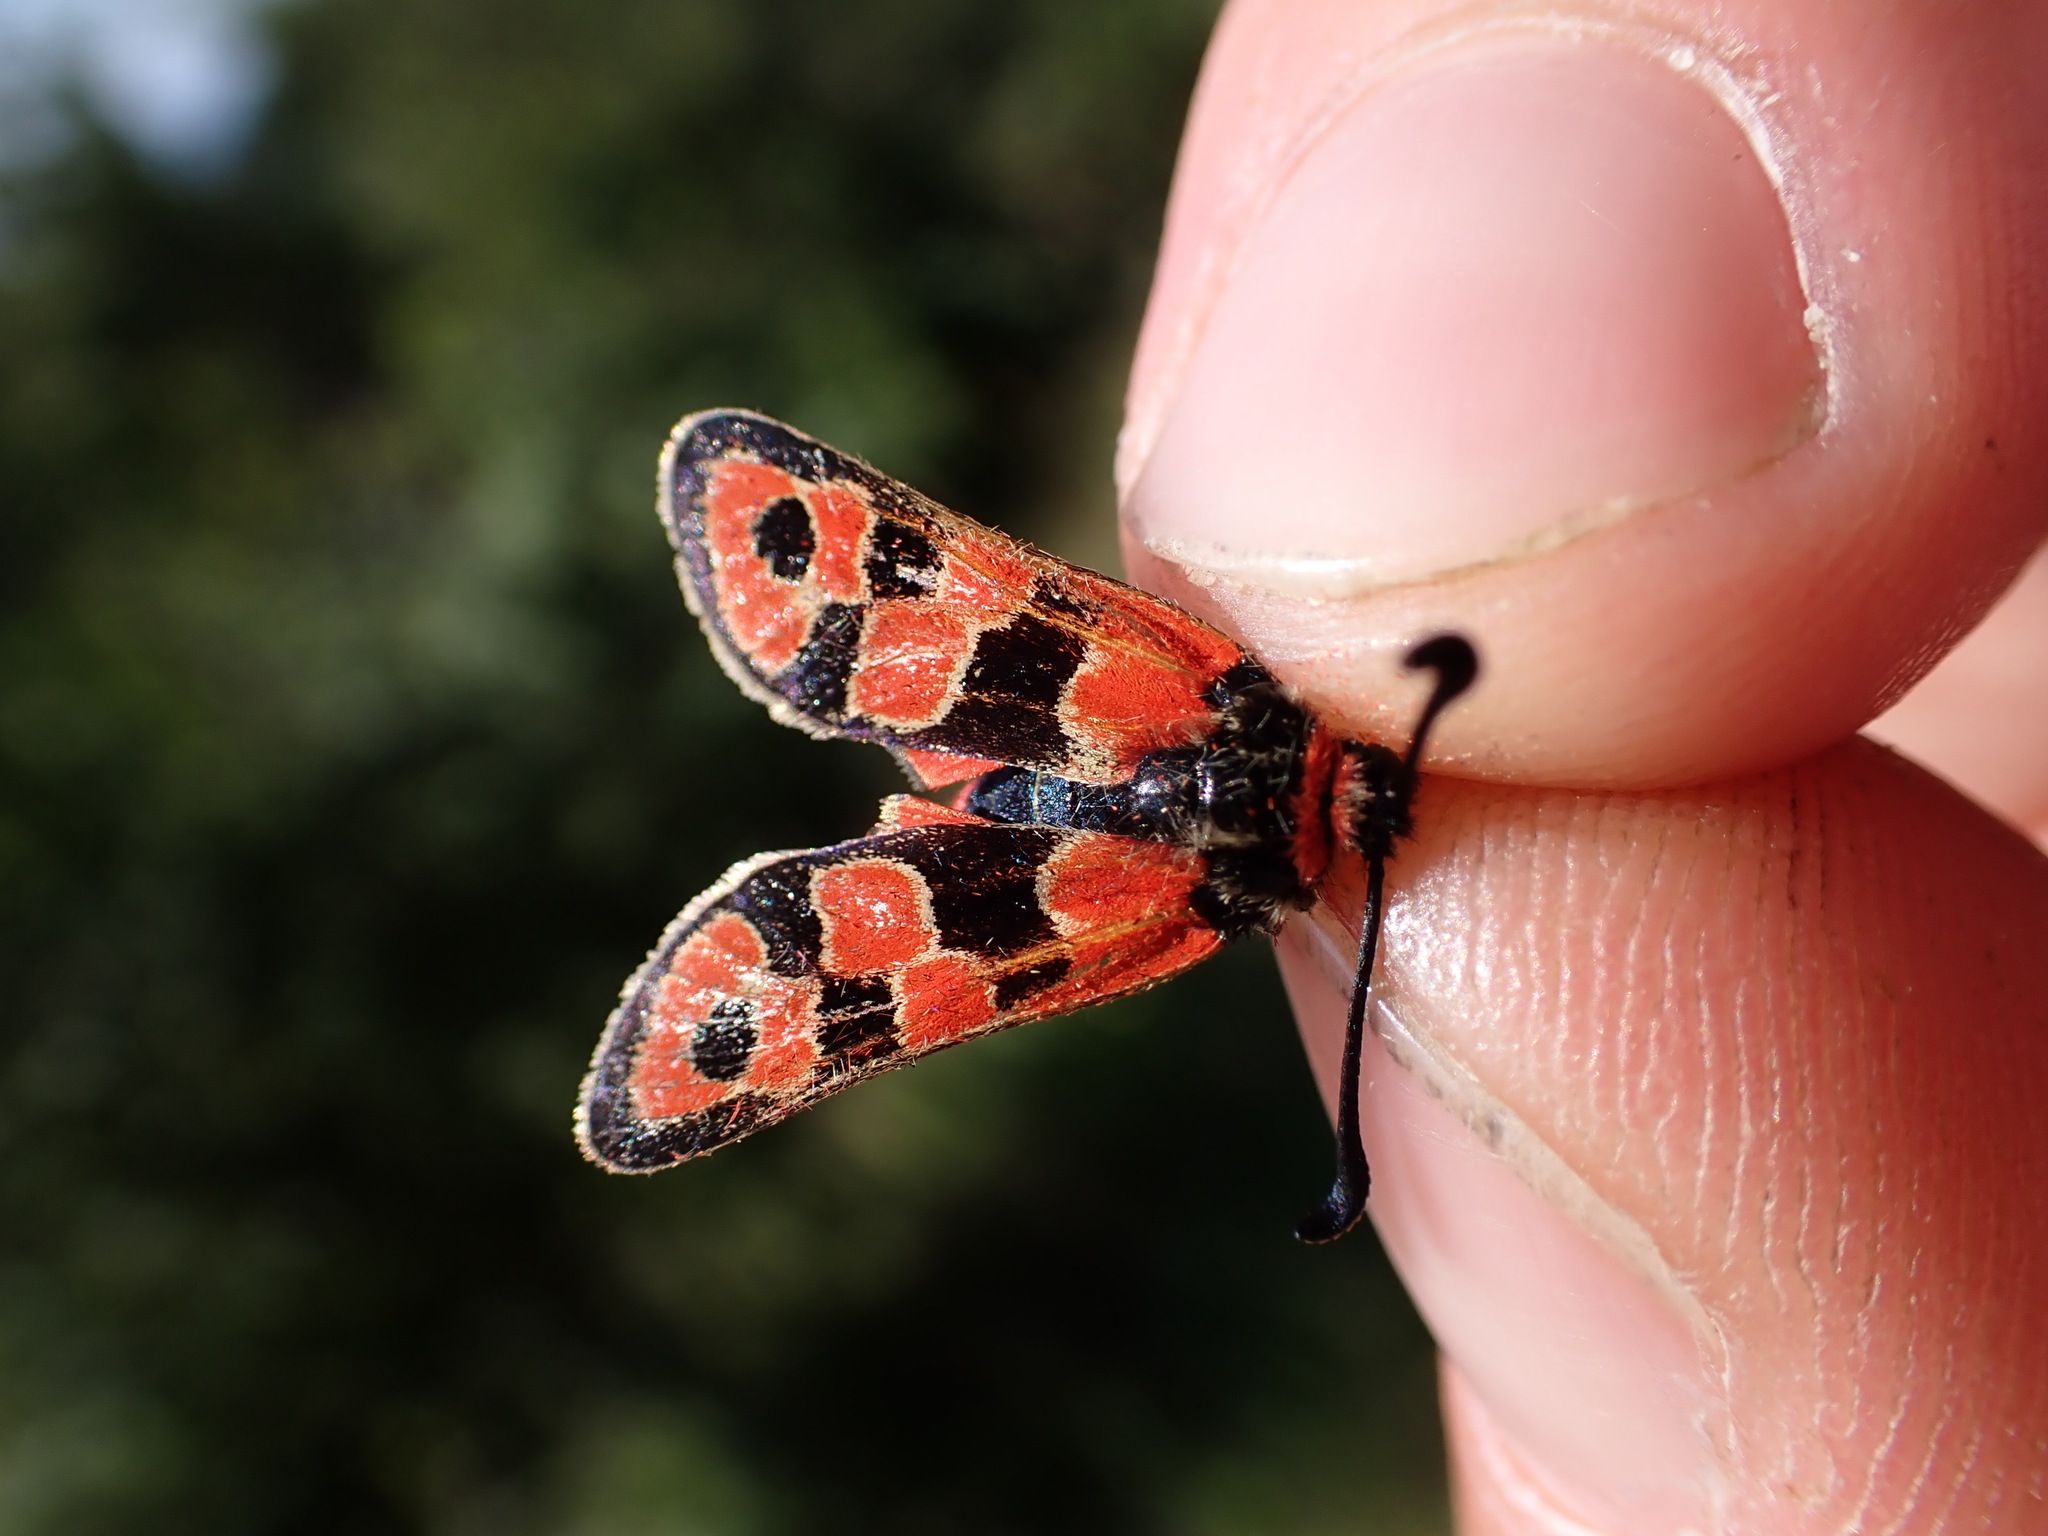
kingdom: Animalia
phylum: Arthropoda
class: Insecta
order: Lepidoptera
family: Zygaenidae
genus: Zygaena
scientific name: Zygaena fausta
